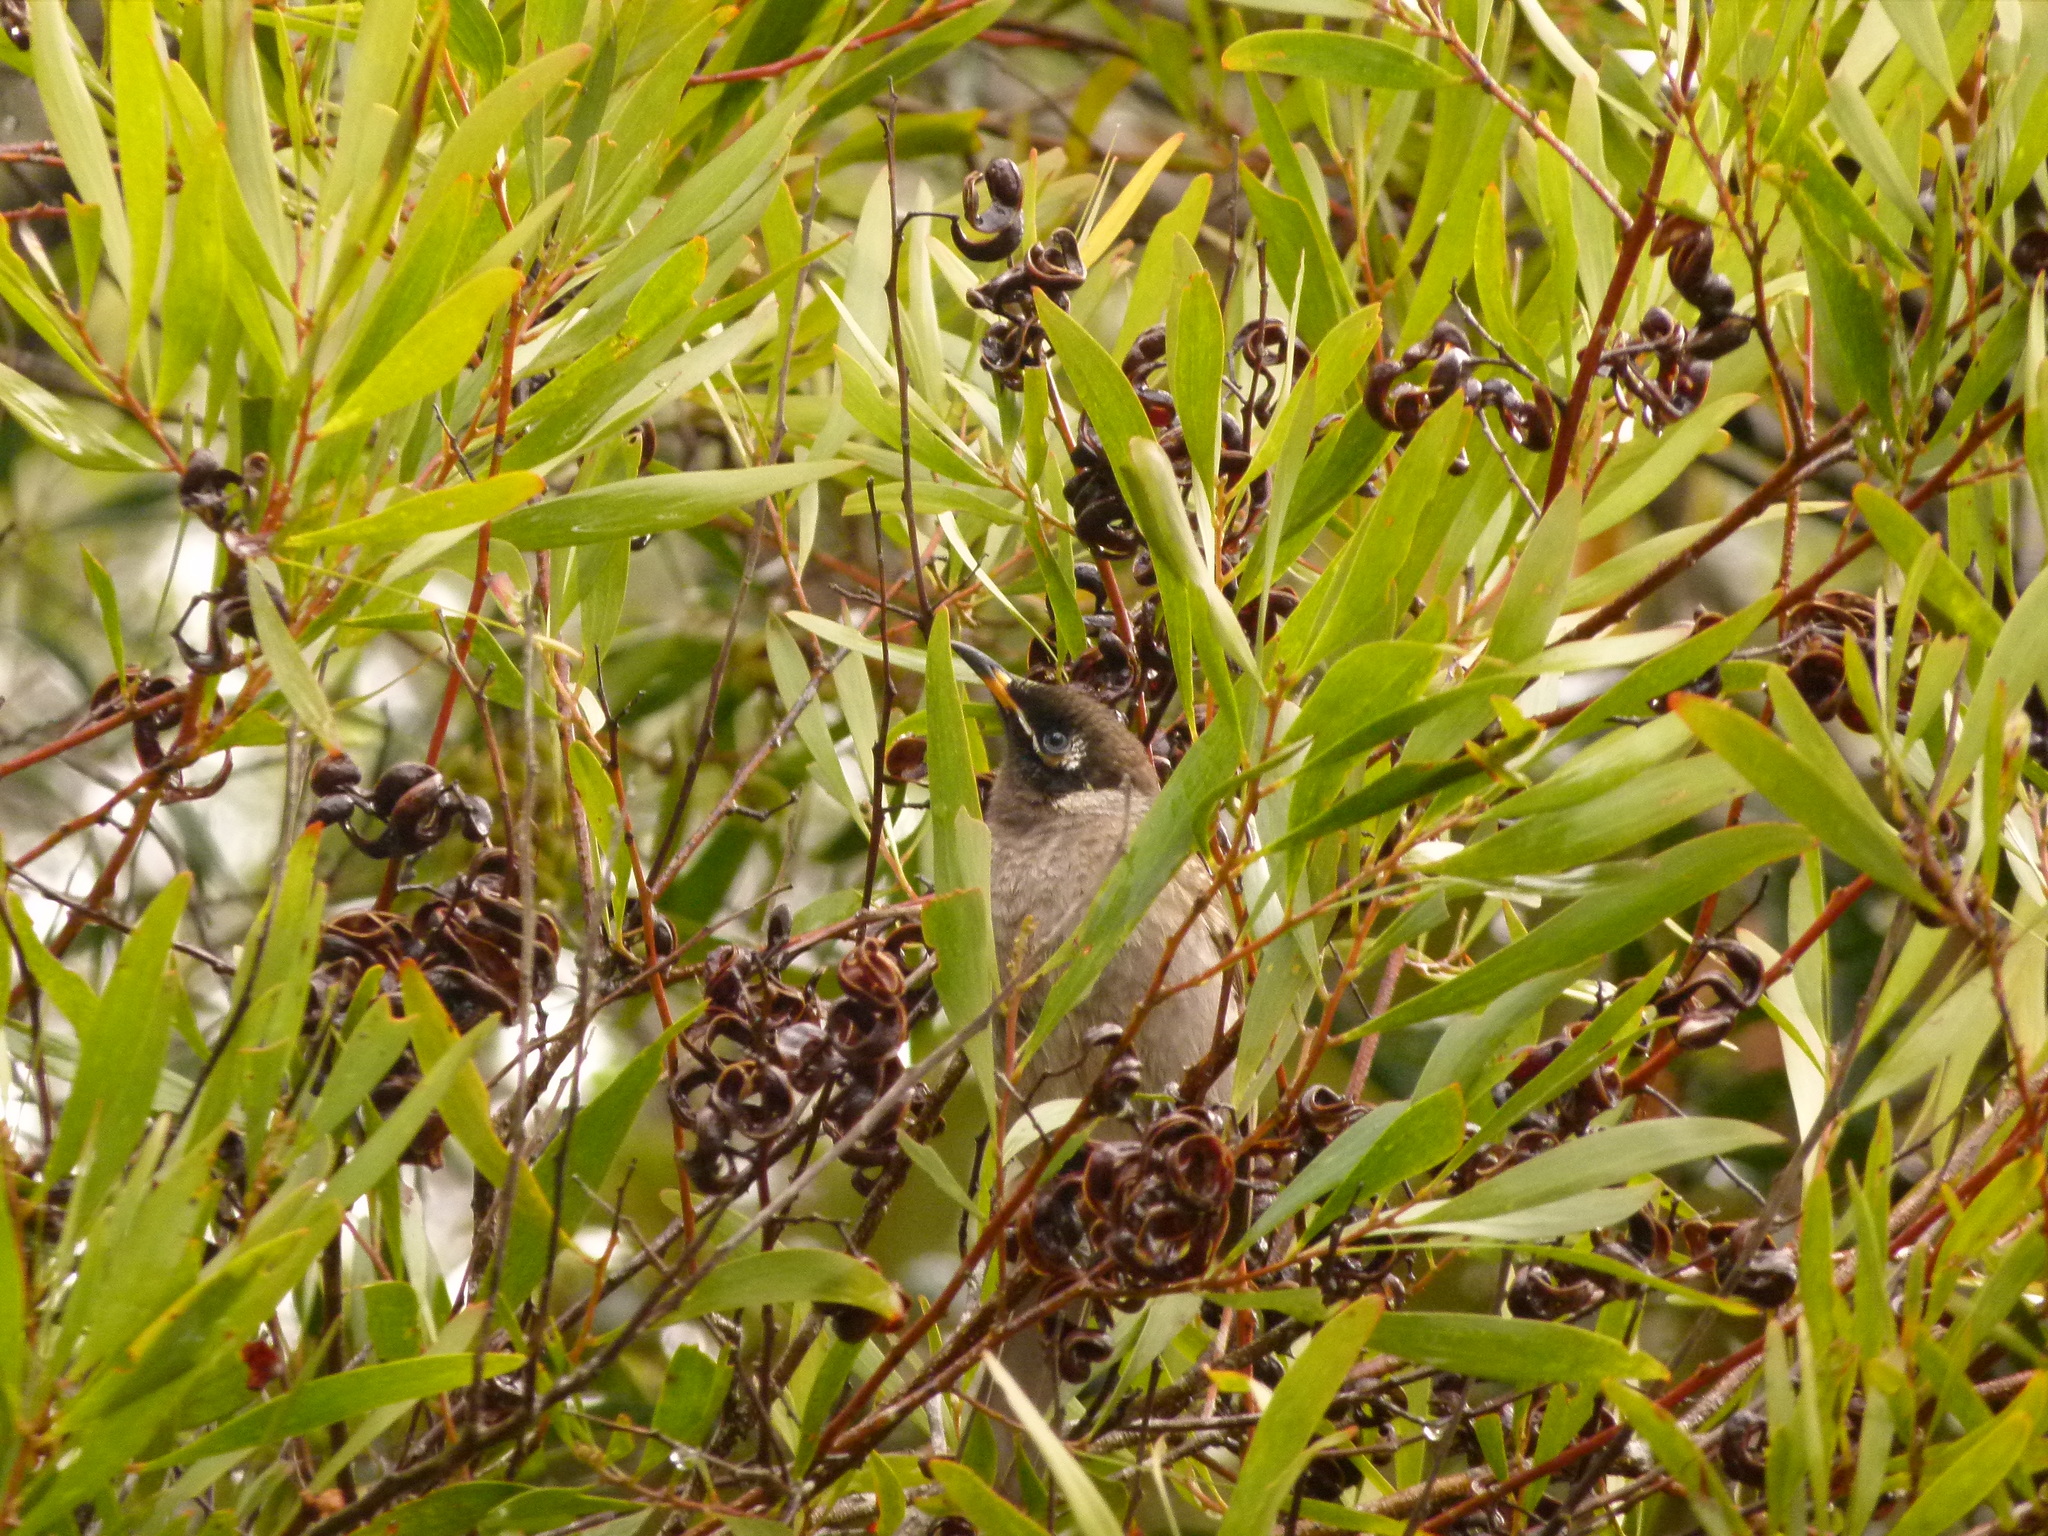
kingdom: Animalia
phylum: Chordata
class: Aves
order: Passeriformes
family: Meliphagidae
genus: Bolemoreus
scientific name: Bolemoreus frenatus
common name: Bridled honeyeater
